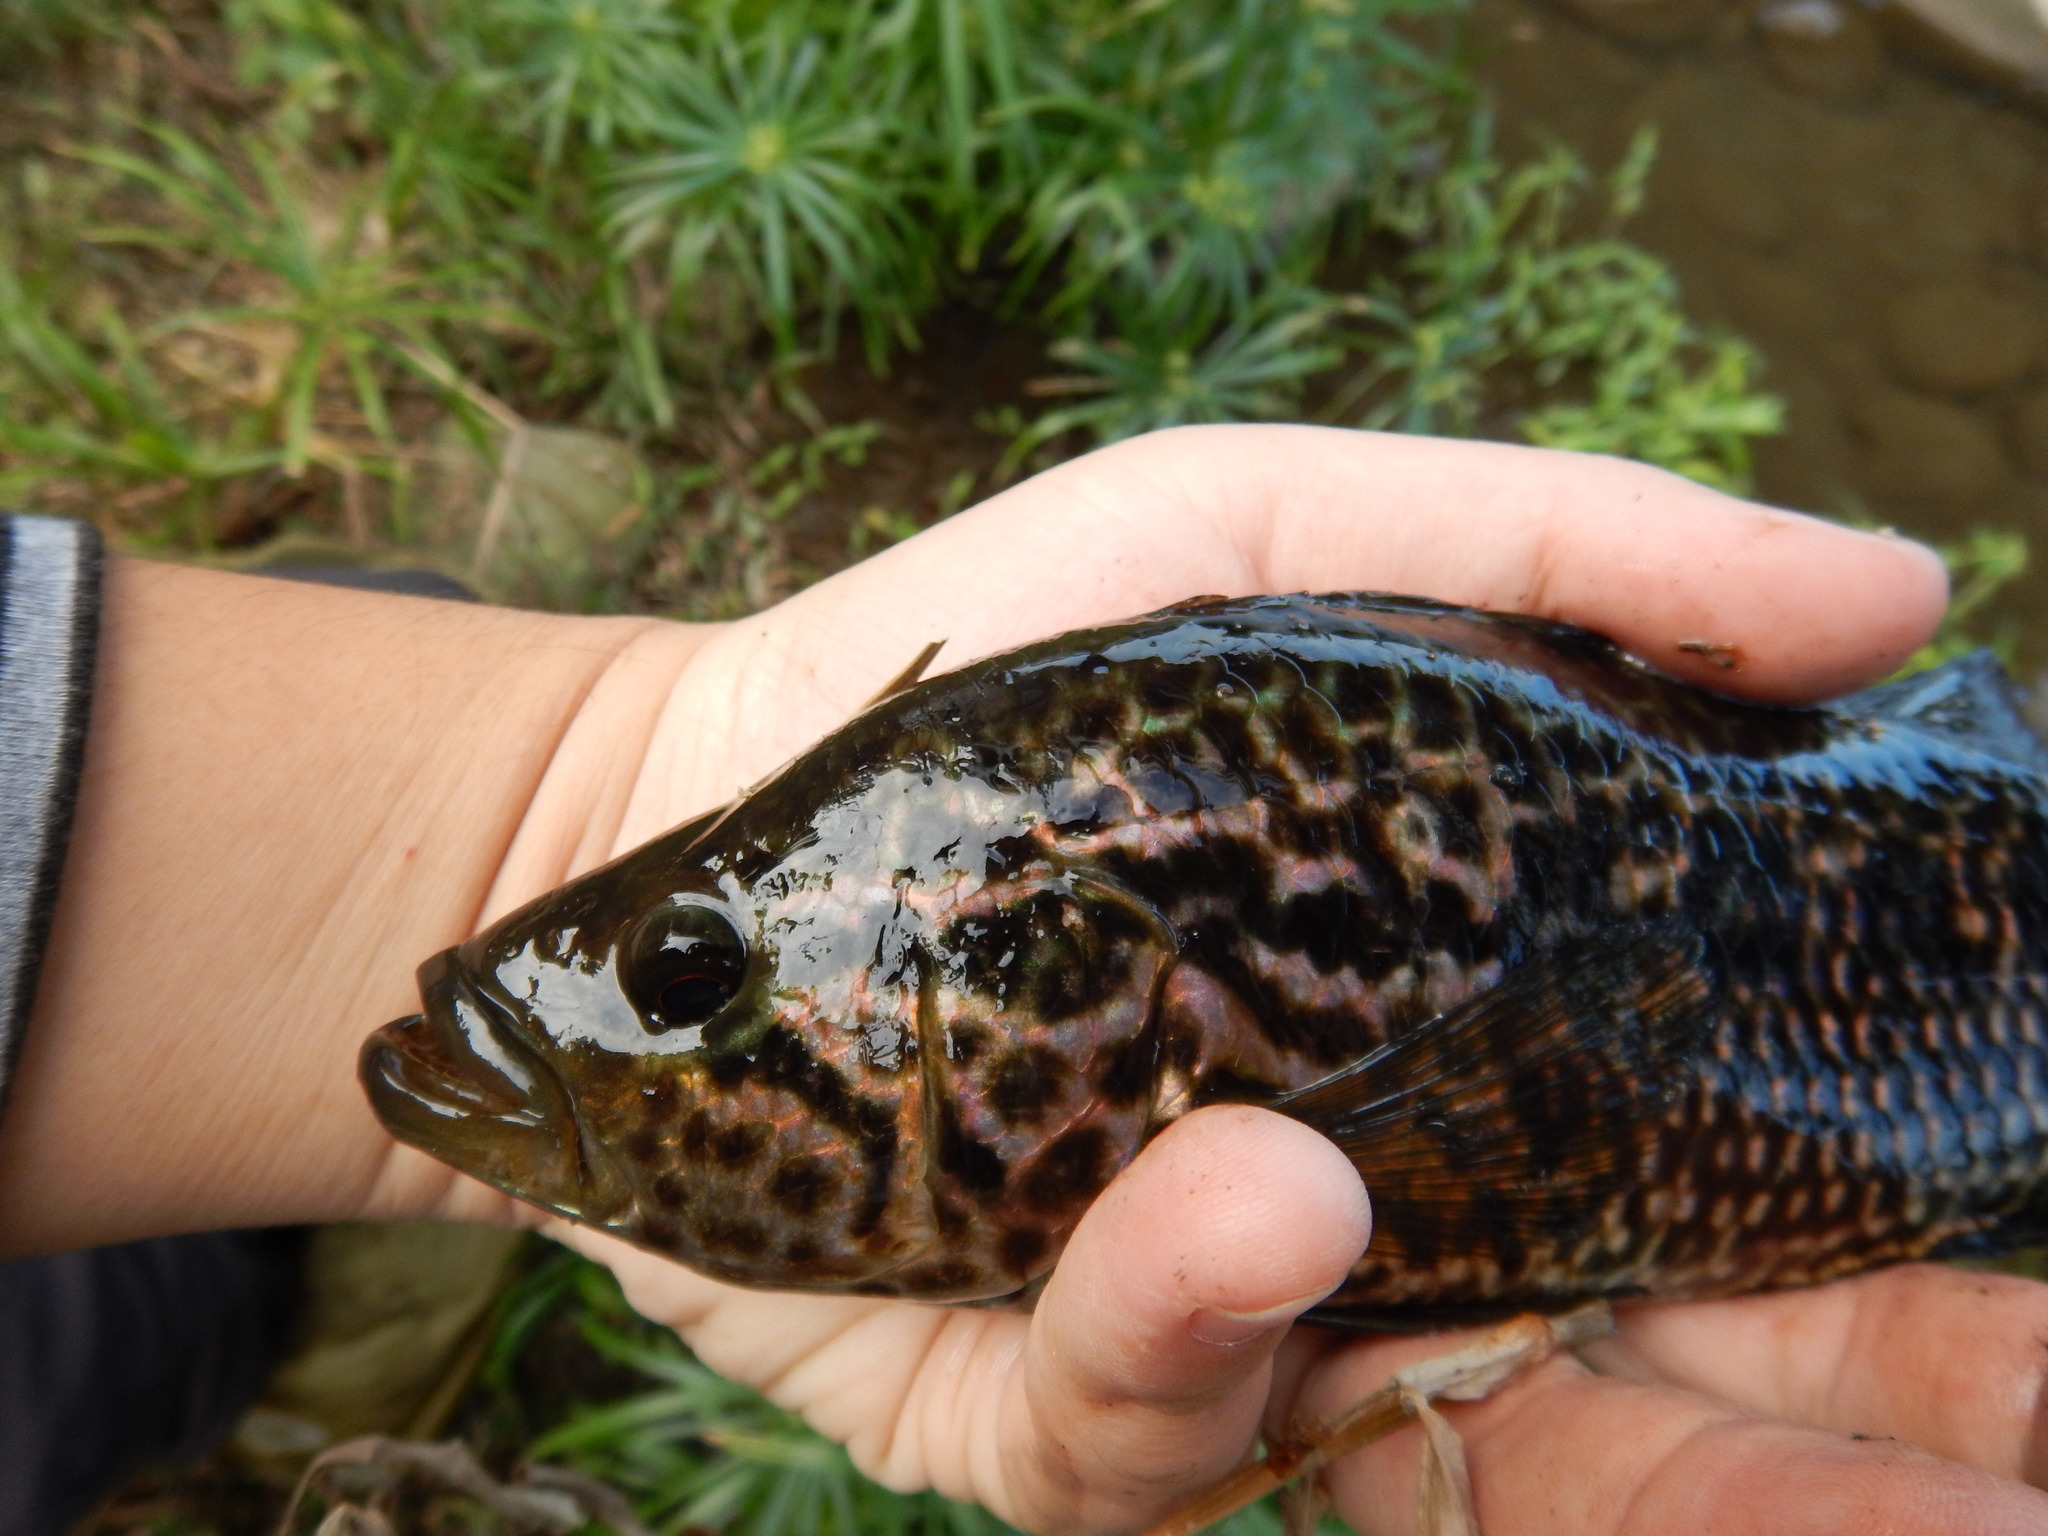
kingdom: Animalia
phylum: Chordata
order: Perciformes
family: Cichlidae
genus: Parachromis
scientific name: Parachromis managuensis
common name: Jaguar guapote
